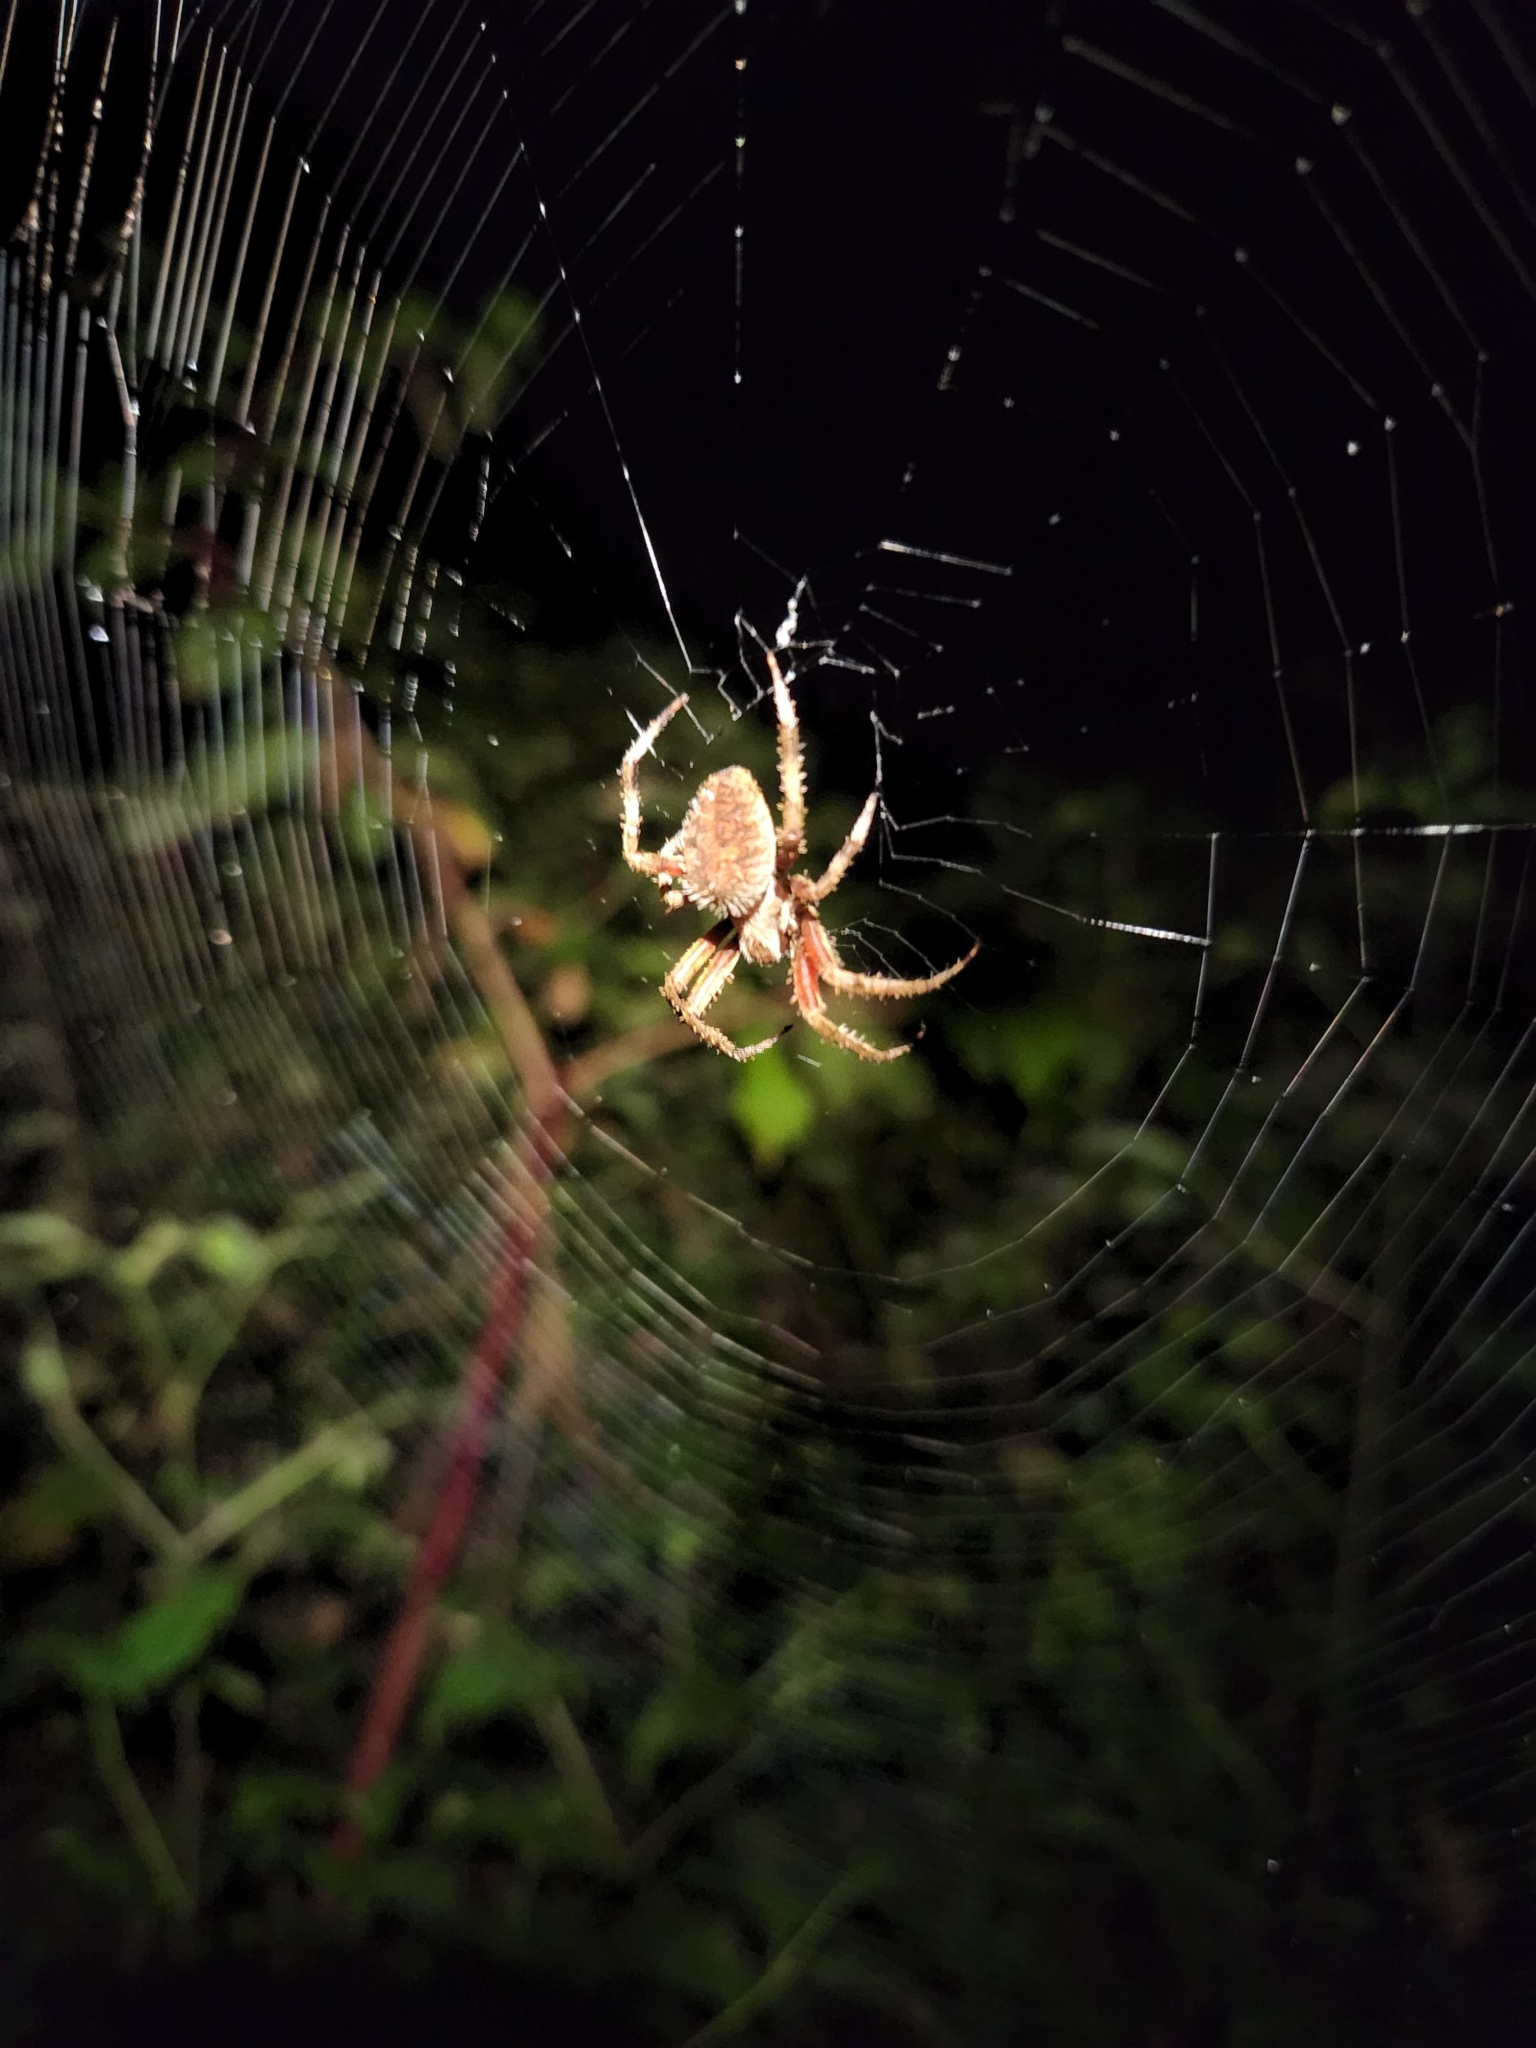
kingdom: Animalia
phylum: Arthropoda
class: Arachnida
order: Araneae
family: Araneidae
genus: Neoscona
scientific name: Neoscona crucifera
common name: Spotted orbweaver
